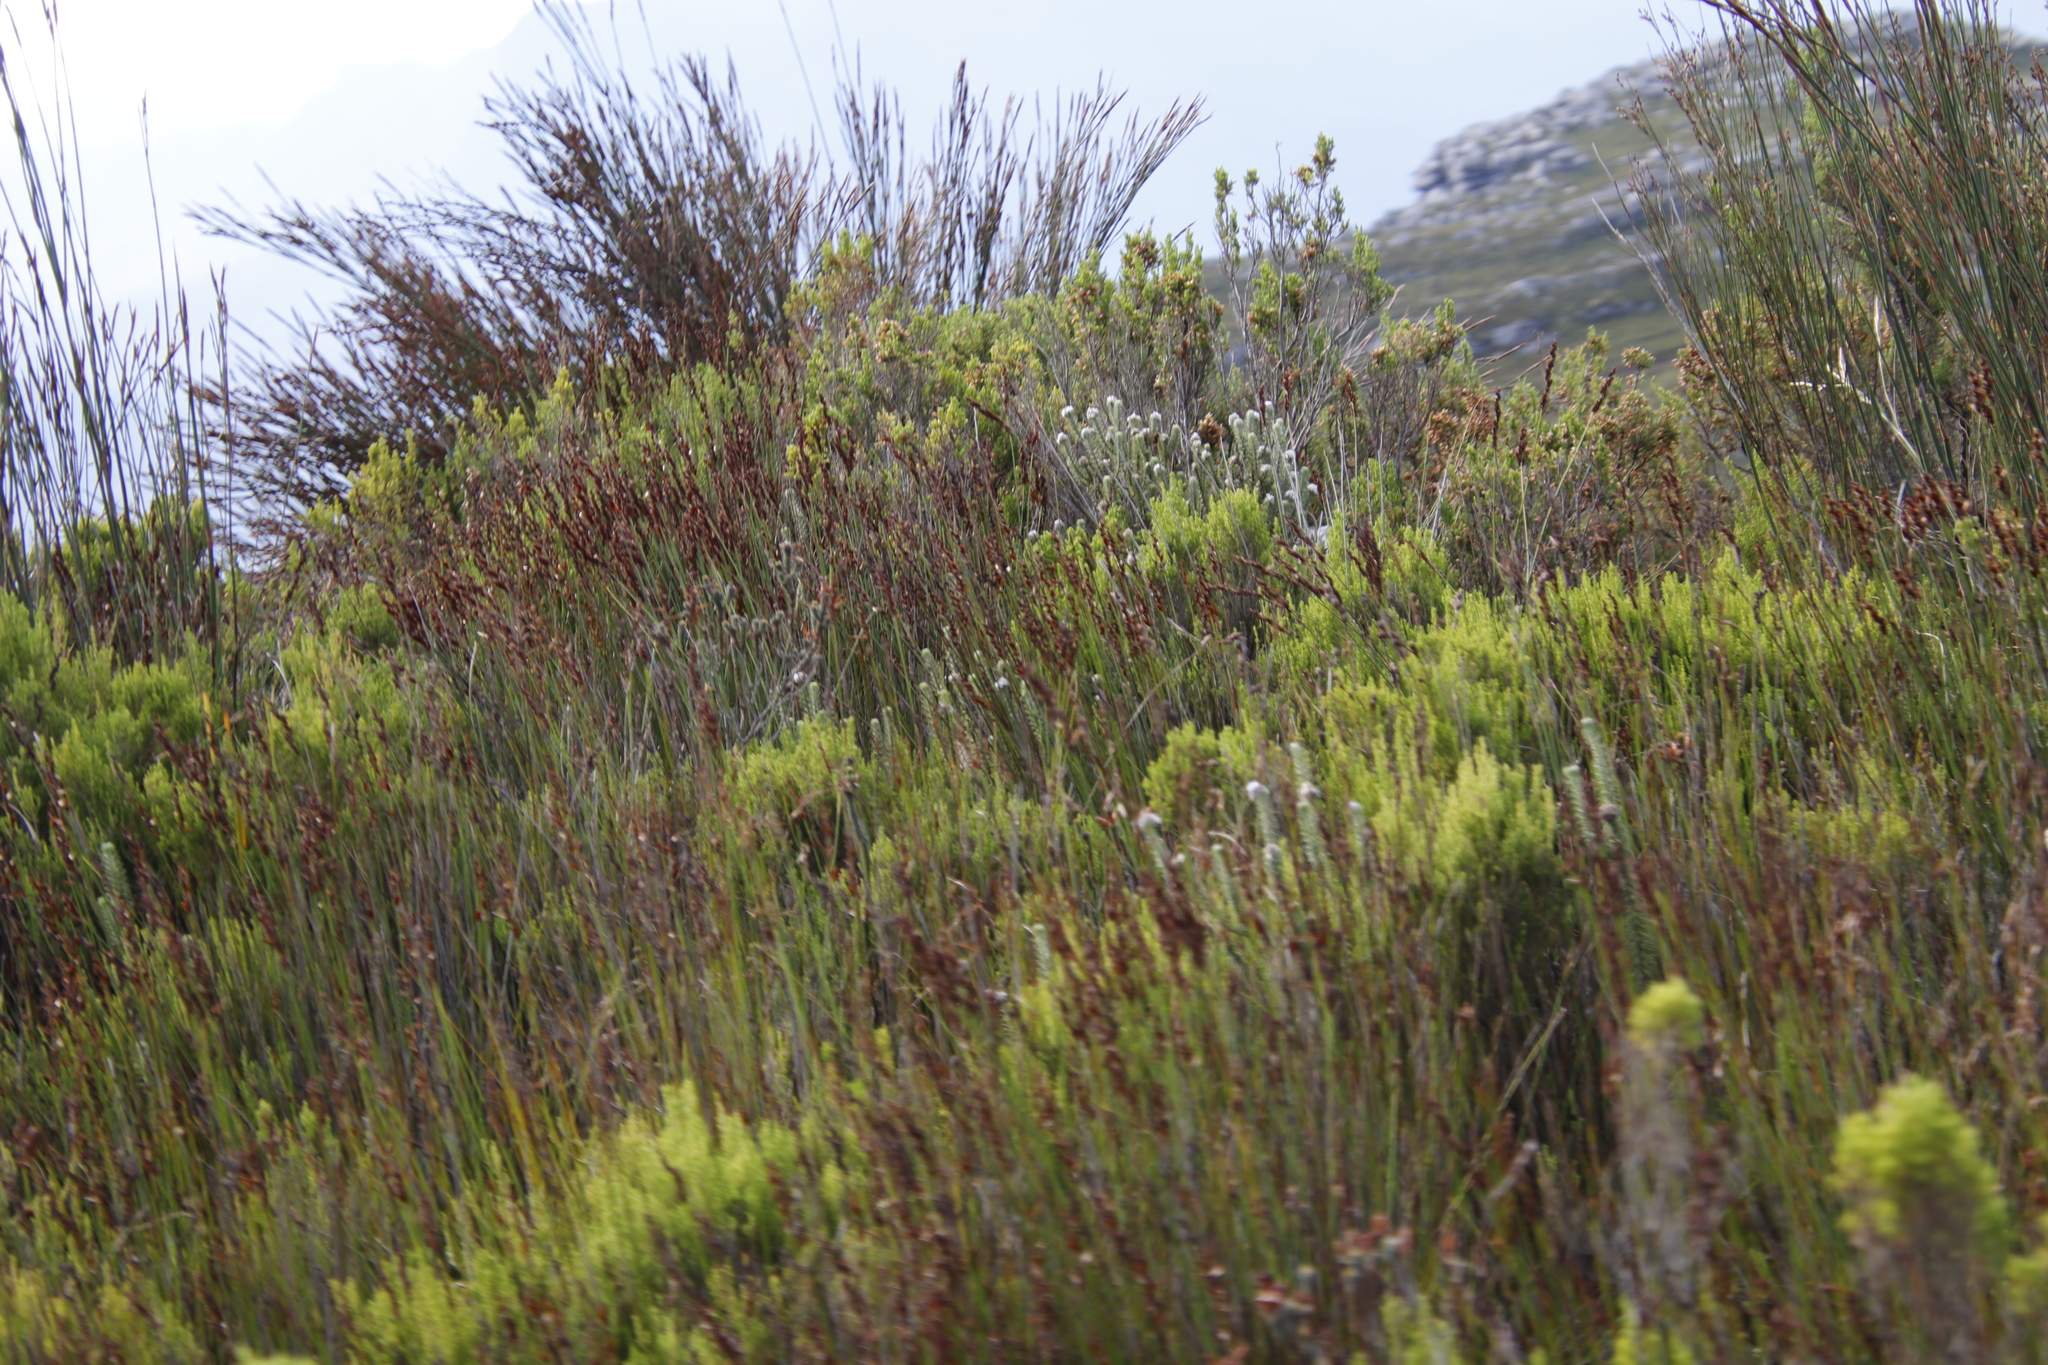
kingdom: Plantae
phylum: Tracheophyta
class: Magnoliopsida
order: Lamiales
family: Stilbaceae
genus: Kogelbergia
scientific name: Kogelbergia verticillata
